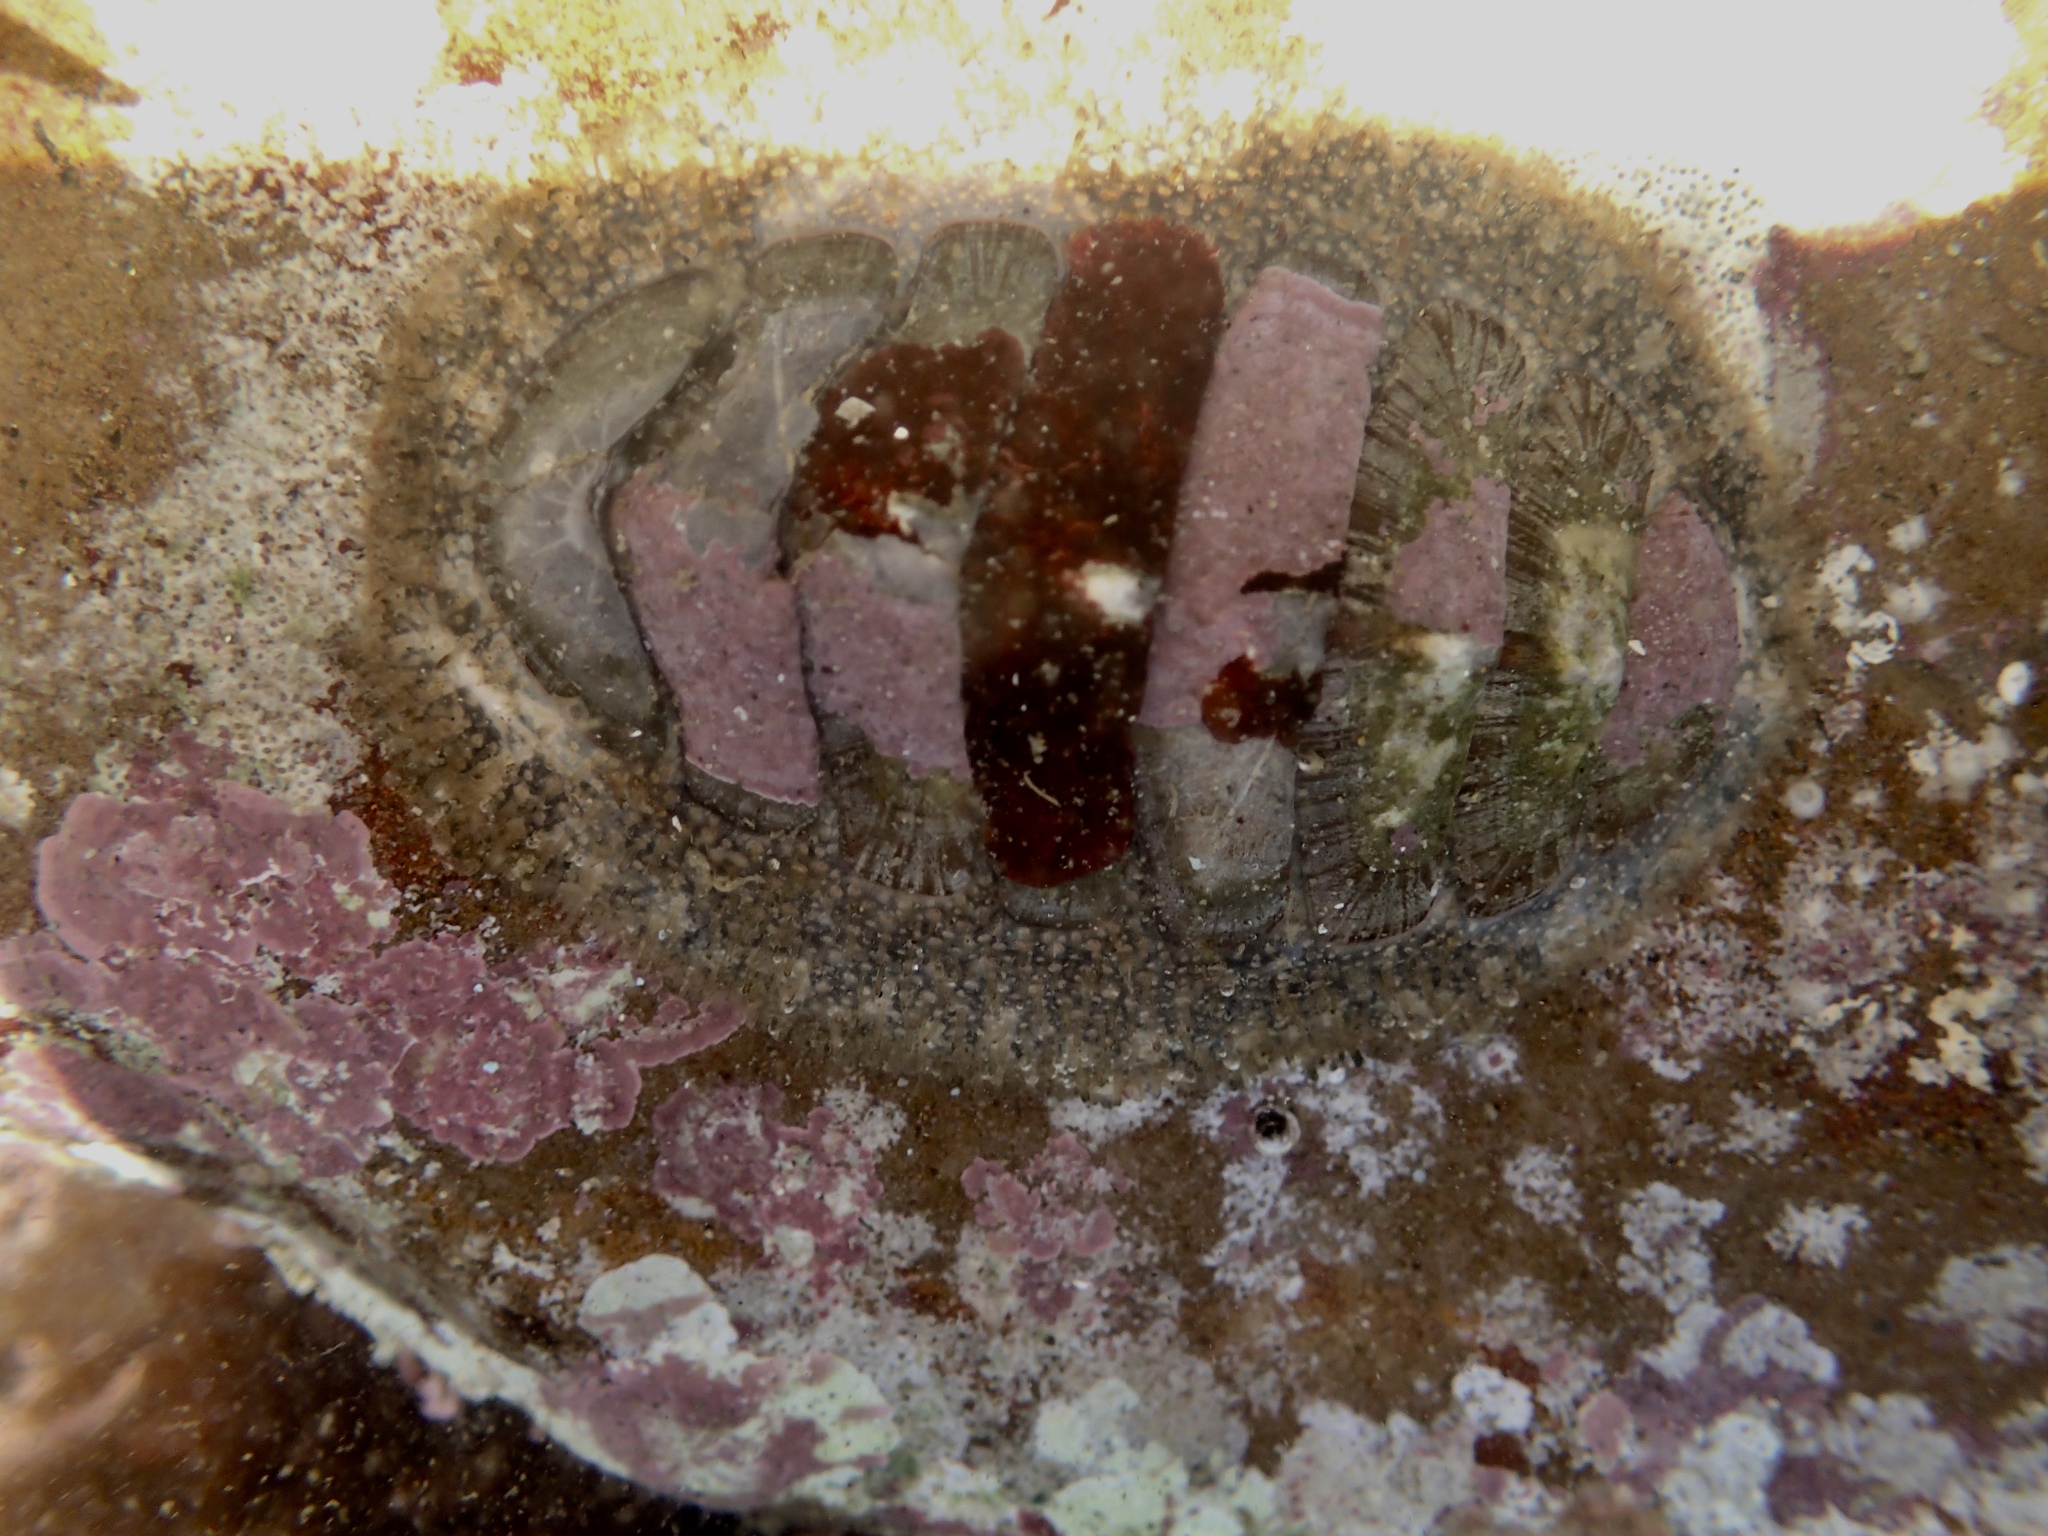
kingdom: Animalia
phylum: Mollusca
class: Polyplacophora
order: Chitonida
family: Mopaliidae
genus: Mopalia
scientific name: Mopalia lignosa
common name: Woody chiton
